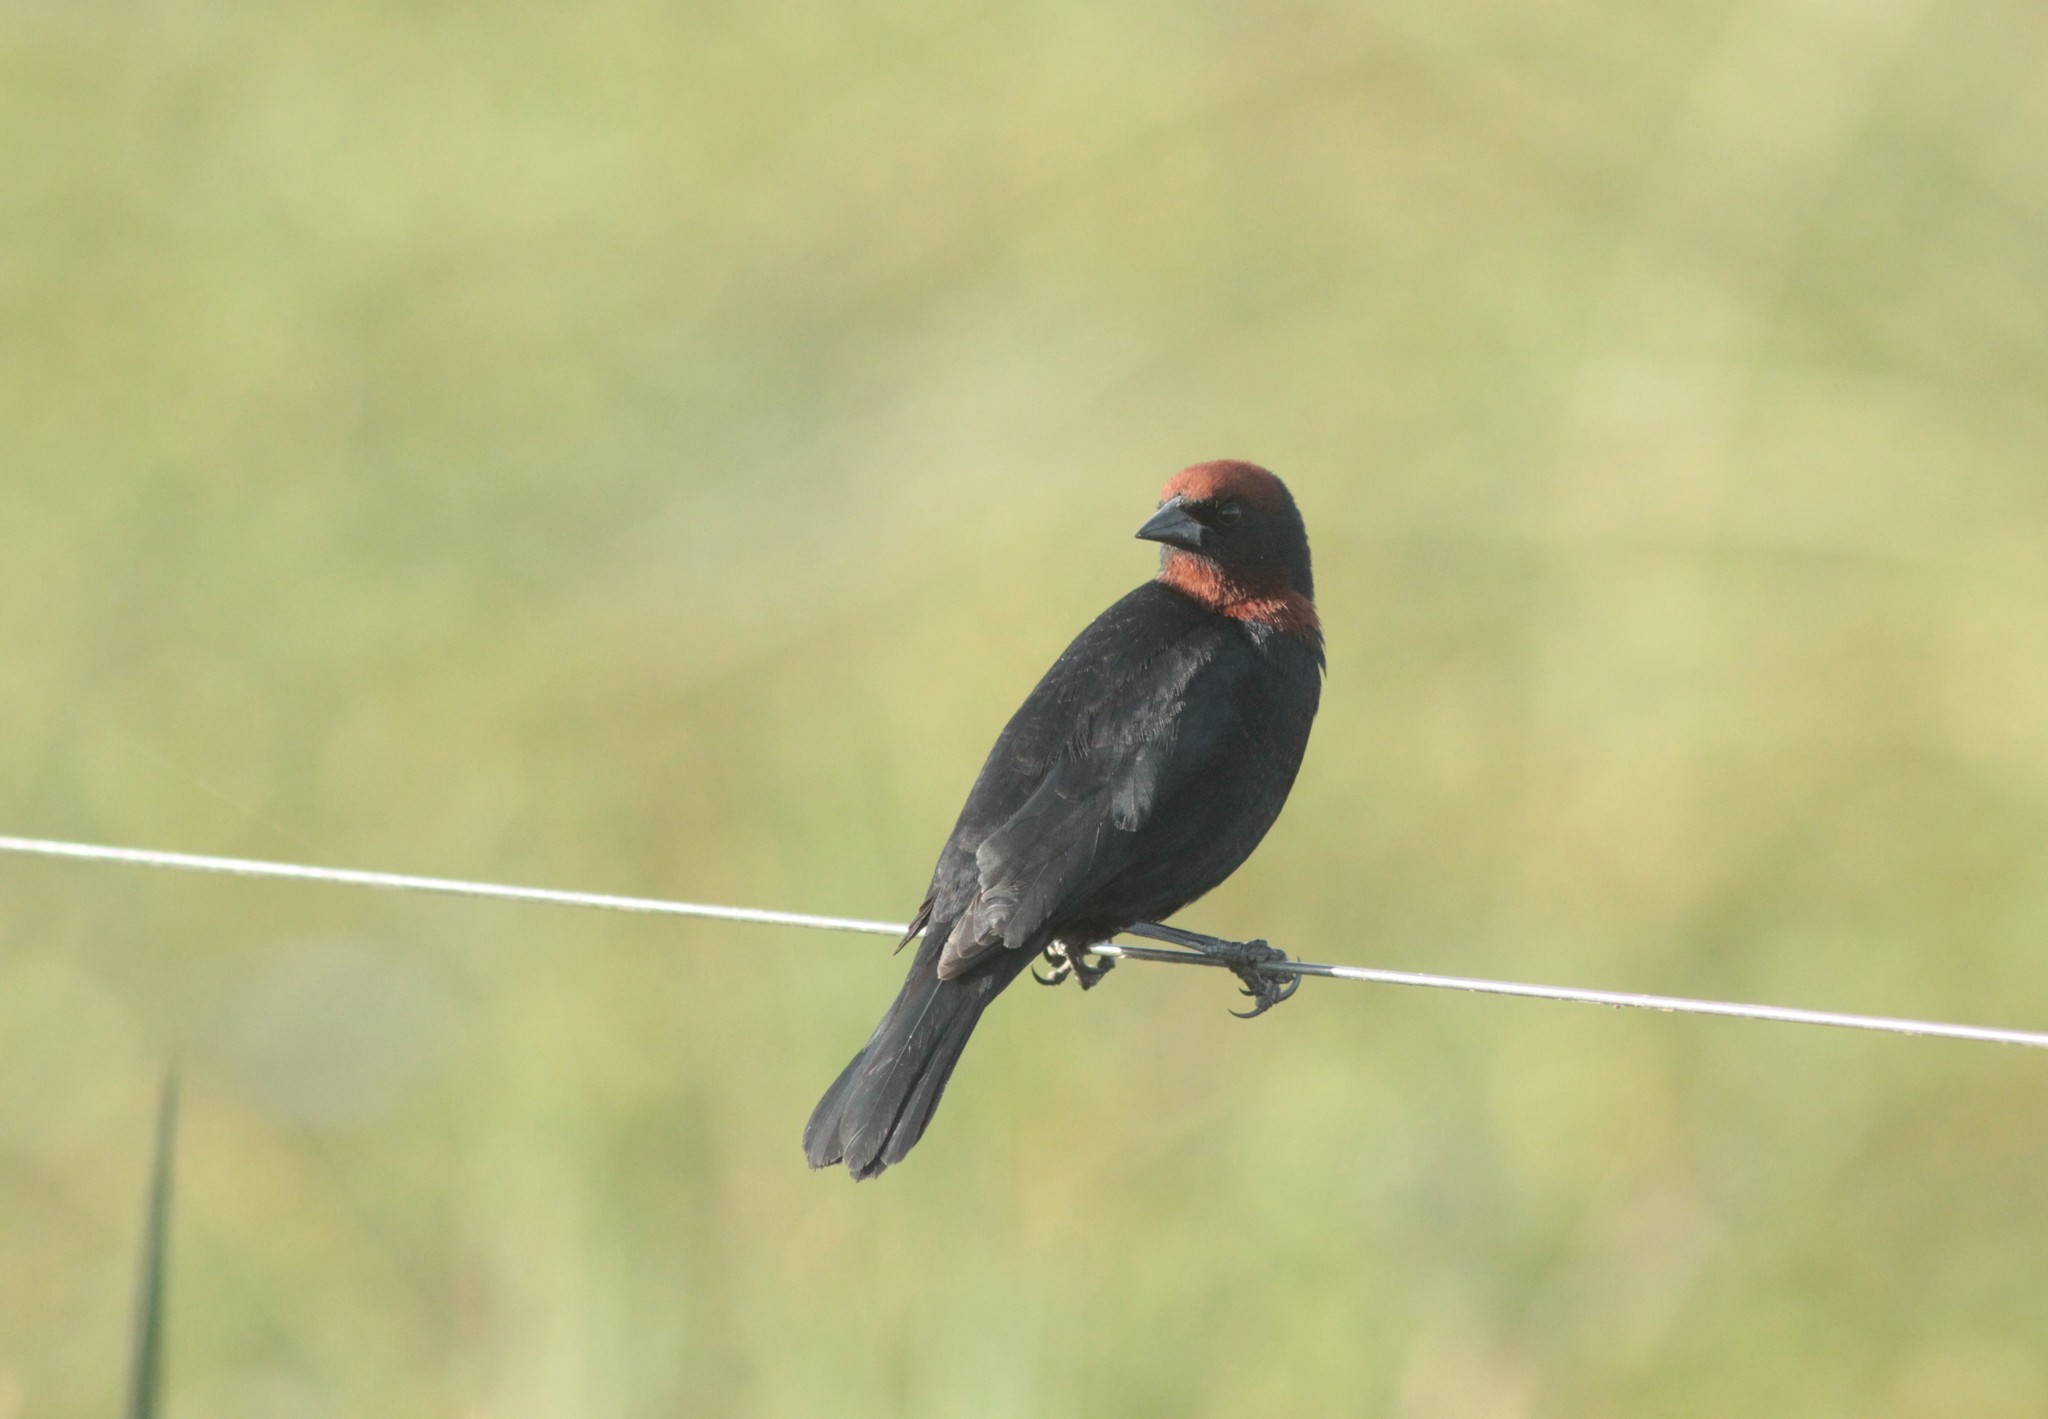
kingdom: Animalia
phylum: Chordata
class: Aves
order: Passeriformes
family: Icteridae
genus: Chrysomus
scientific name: Chrysomus ruficapillus
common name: Chestnut-capped blackbird
